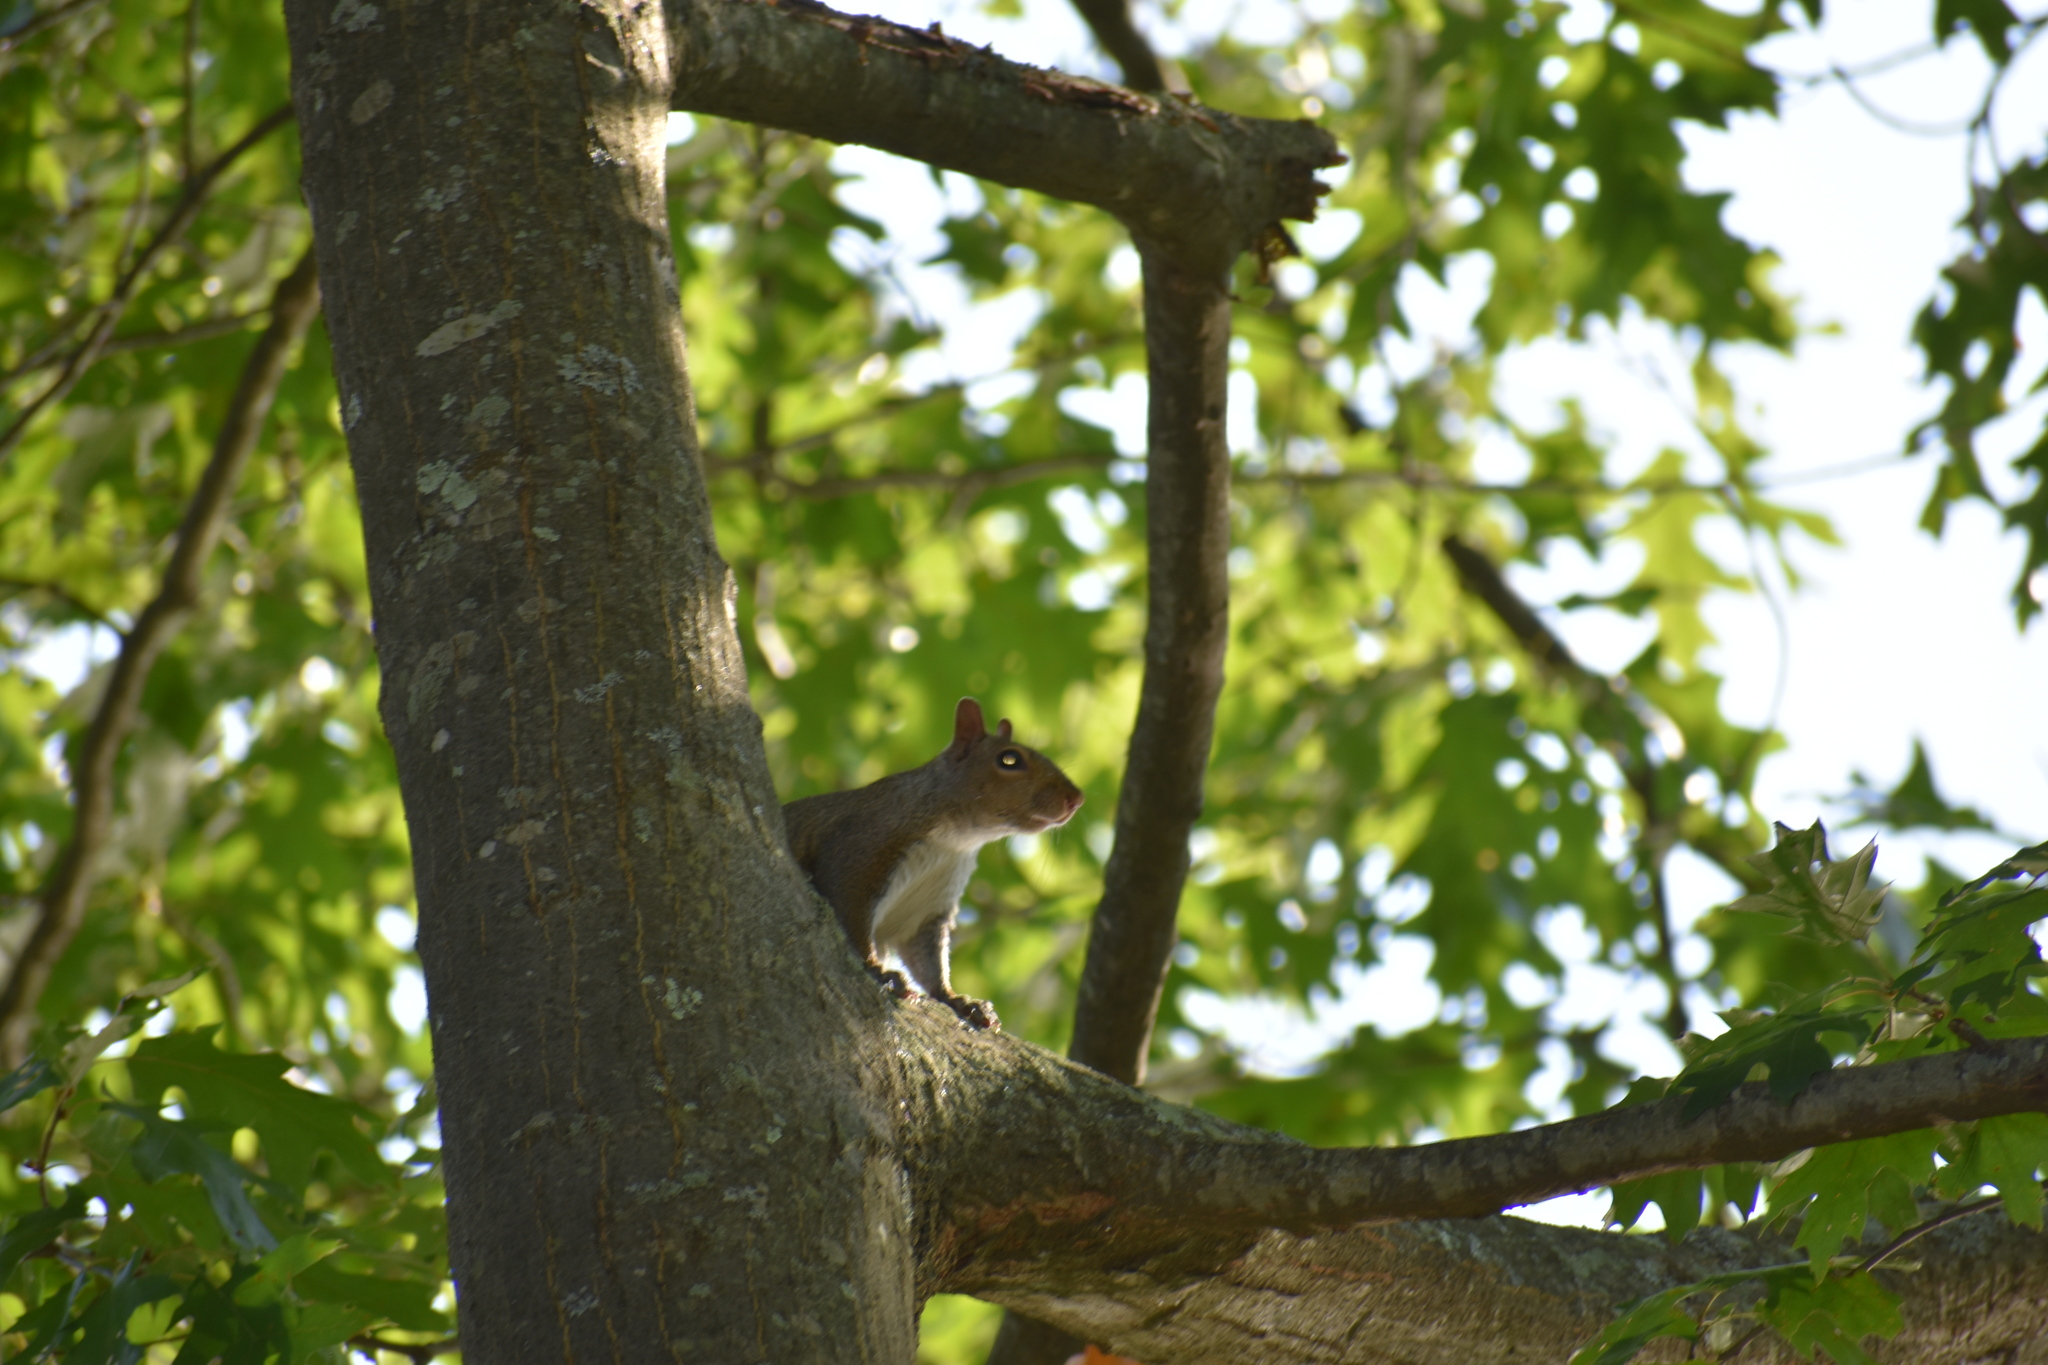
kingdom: Animalia
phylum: Chordata
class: Mammalia
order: Rodentia
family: Sciuridae
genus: Sciurus
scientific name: Sciurus carolinensis
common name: Eastern gray squirrel
